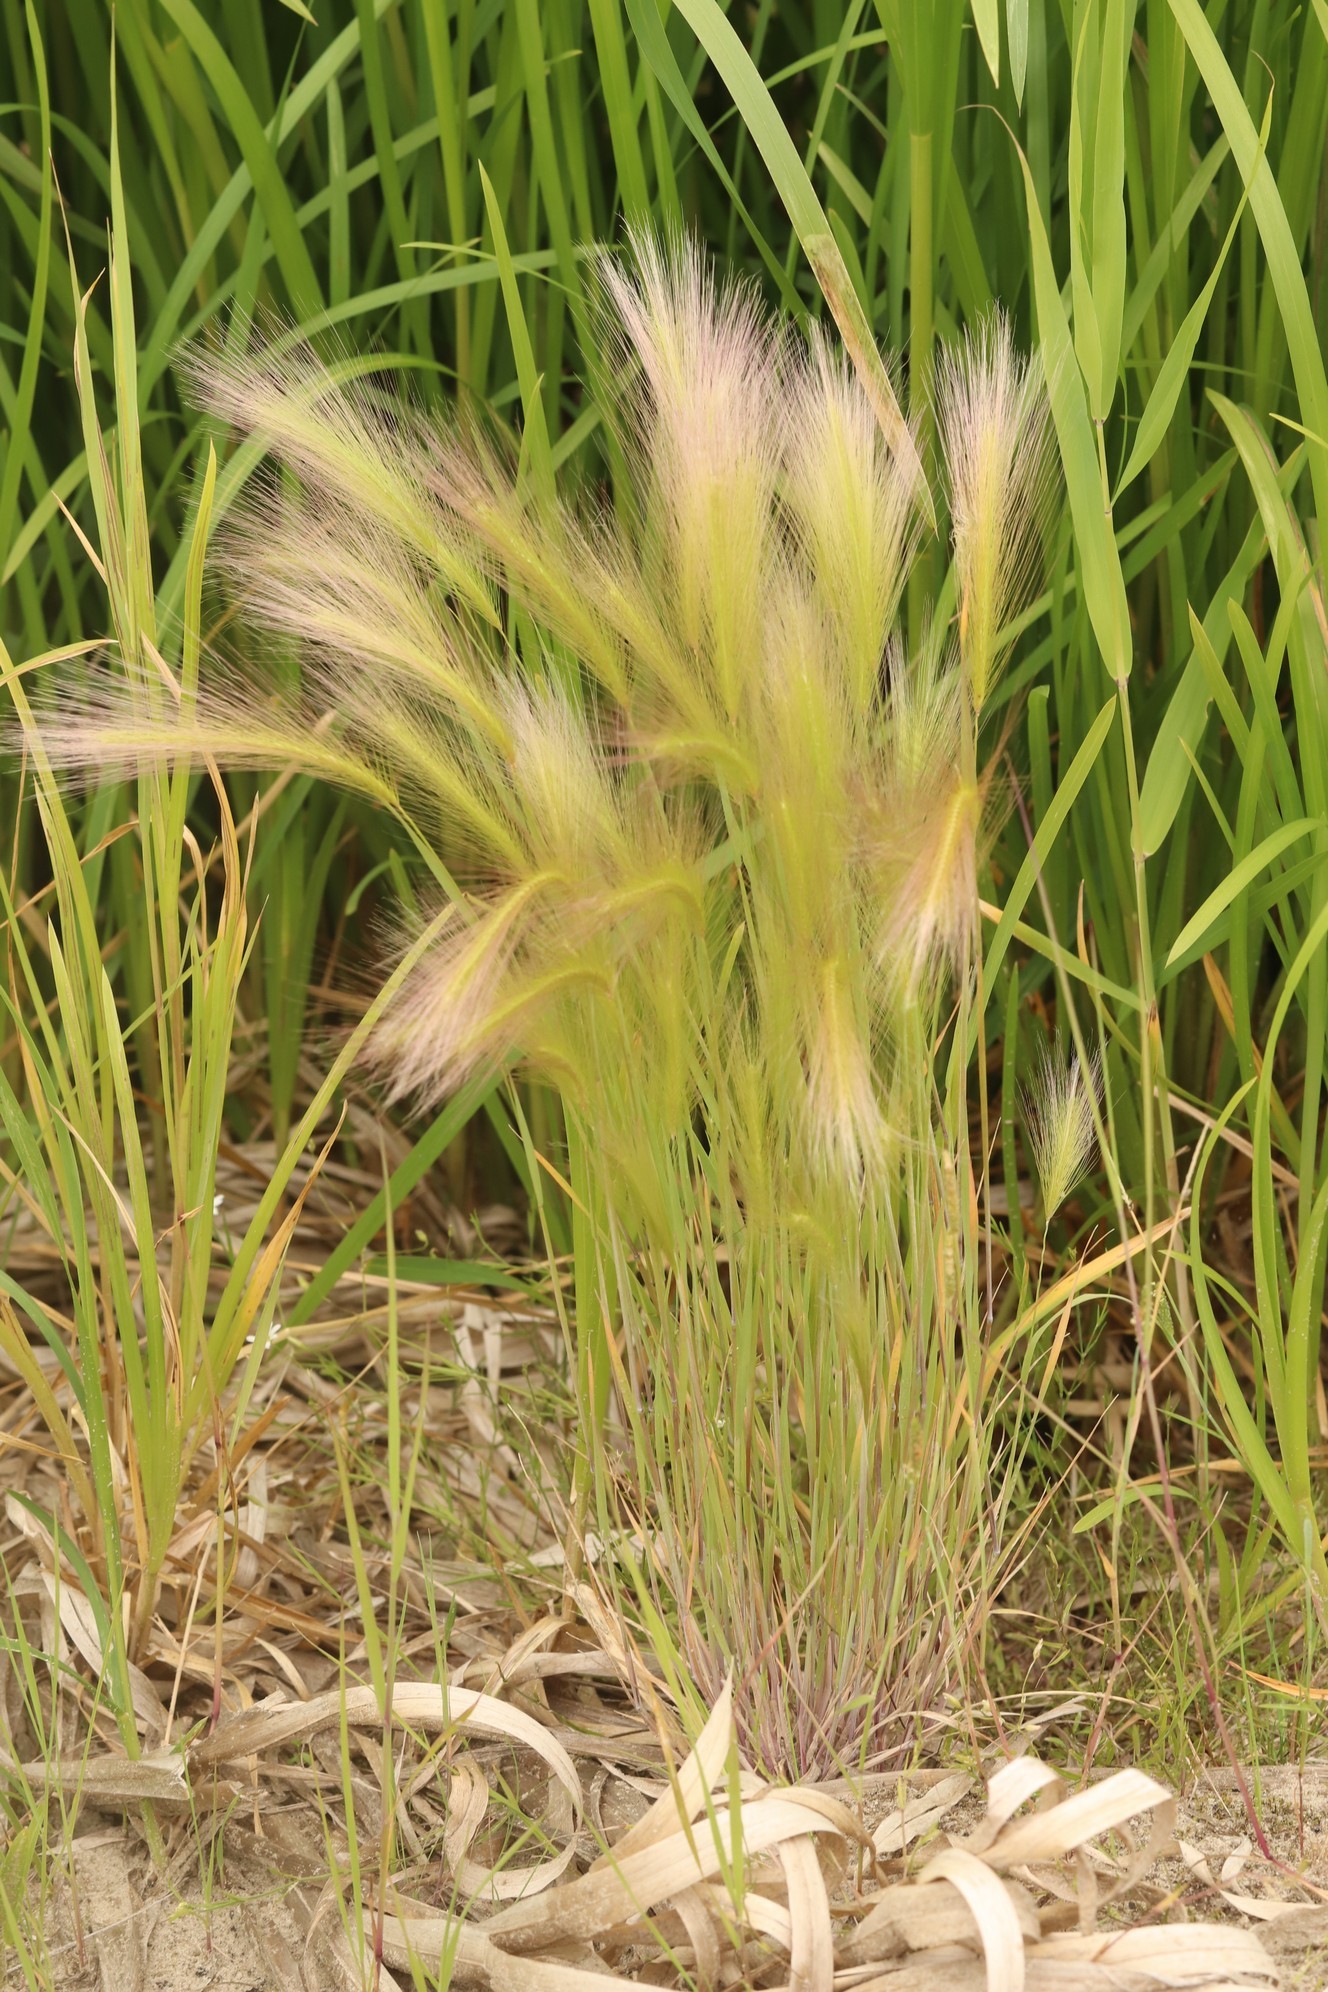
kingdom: Plantae
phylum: Tracheophyta
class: Liliopsida
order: Poales
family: Poaceae
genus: Hordeum
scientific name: Hordeum jubatum
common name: Foxtail barley
